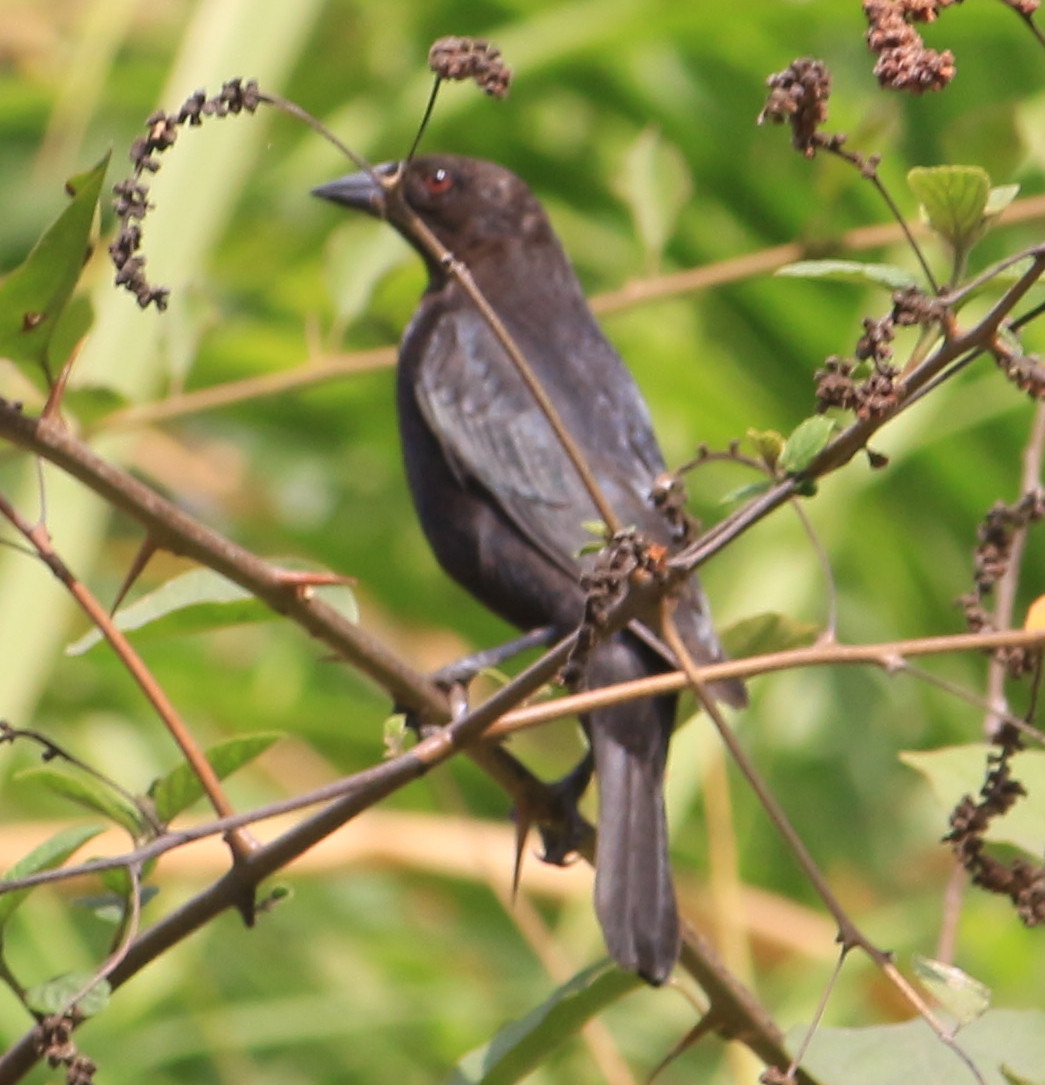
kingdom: Animalia
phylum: Chordata
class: Aves
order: Passeriformes
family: Icteridae
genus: Molothrus
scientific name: Molothrus aeneus
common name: Bronzed cowbird
